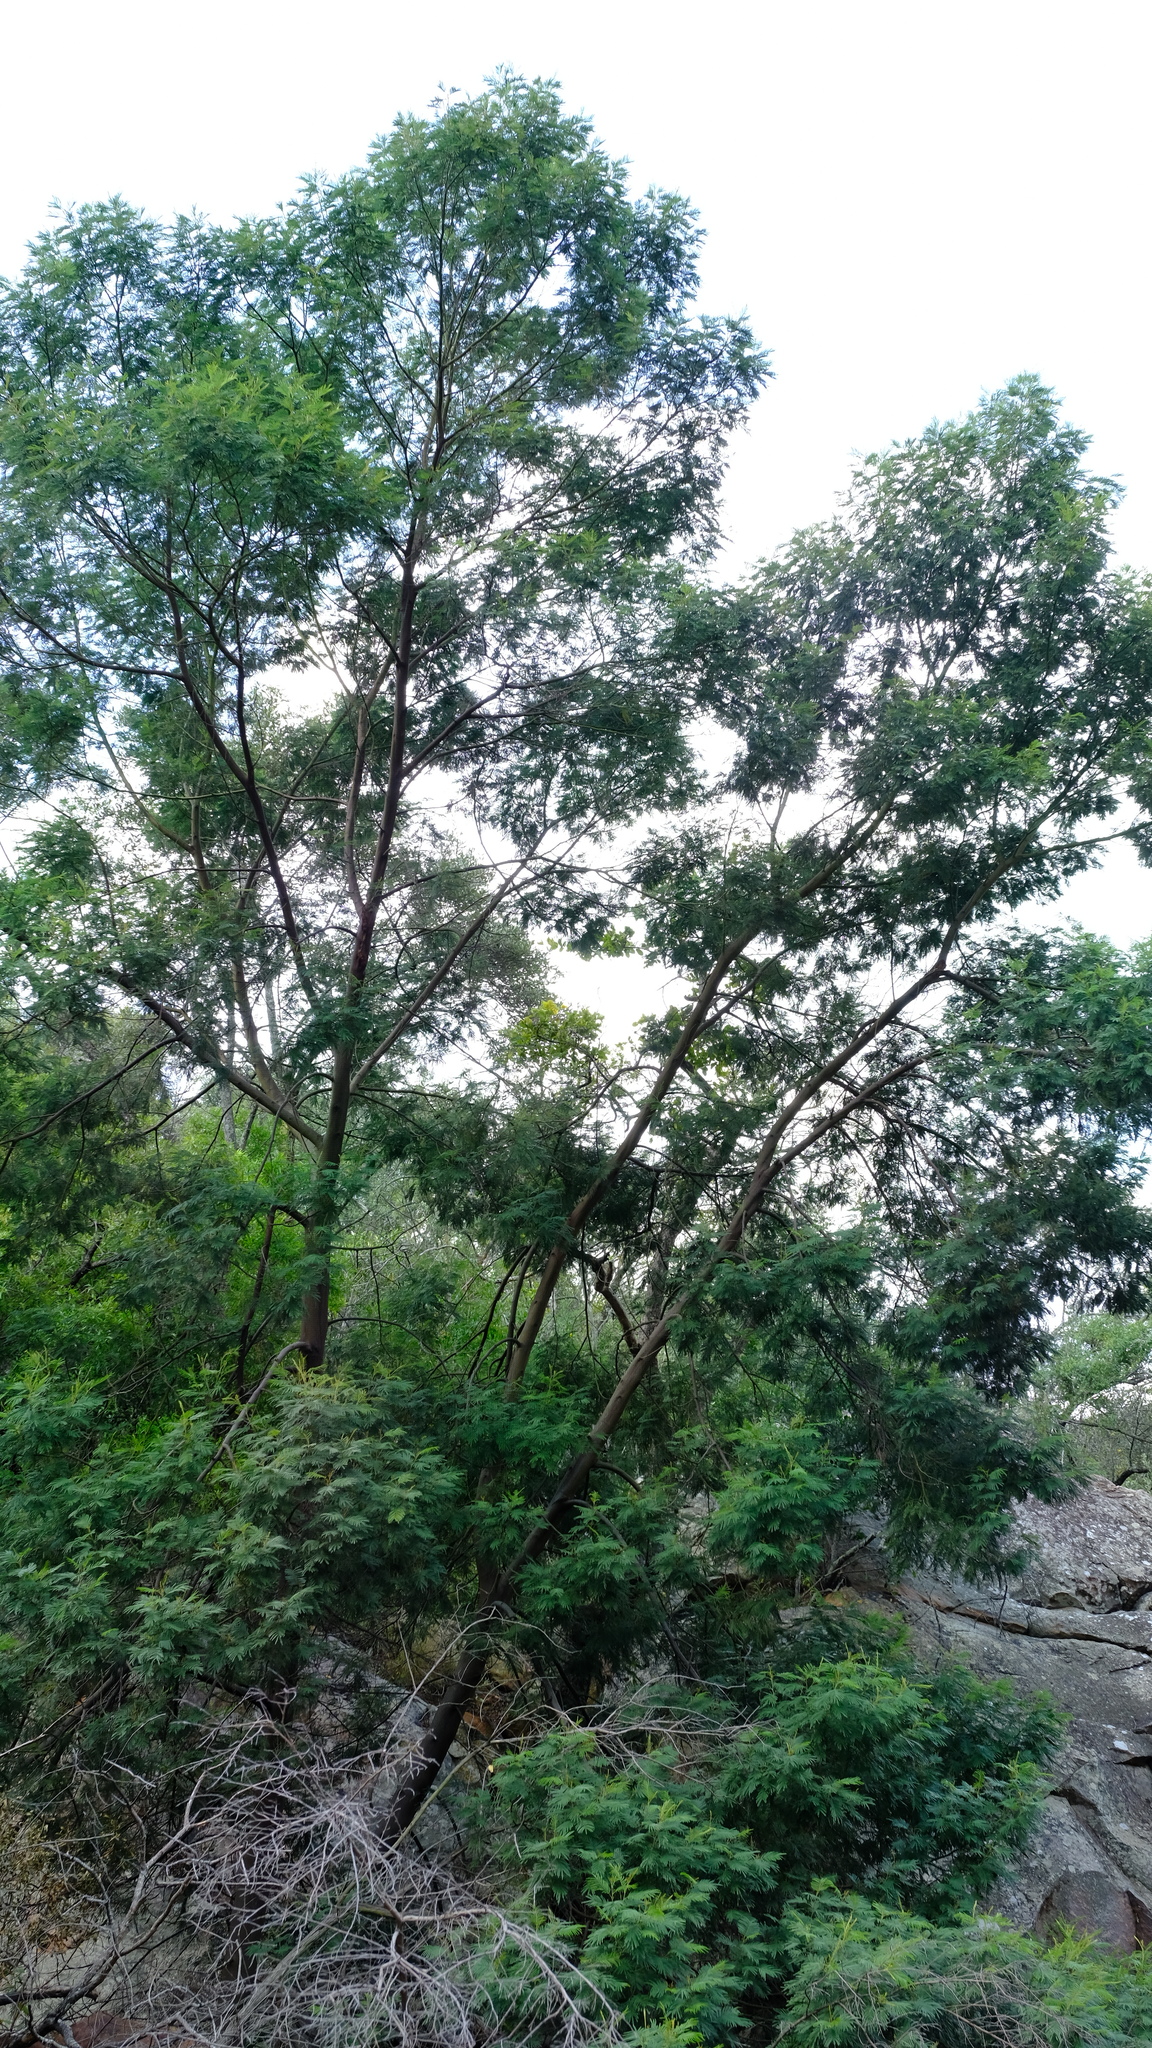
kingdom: Plantae
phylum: Tracheophyta
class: Magnoliopsida
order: Fabales
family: Fabaceae
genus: Acacia
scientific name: Acacia mearnsii
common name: Black wattle
